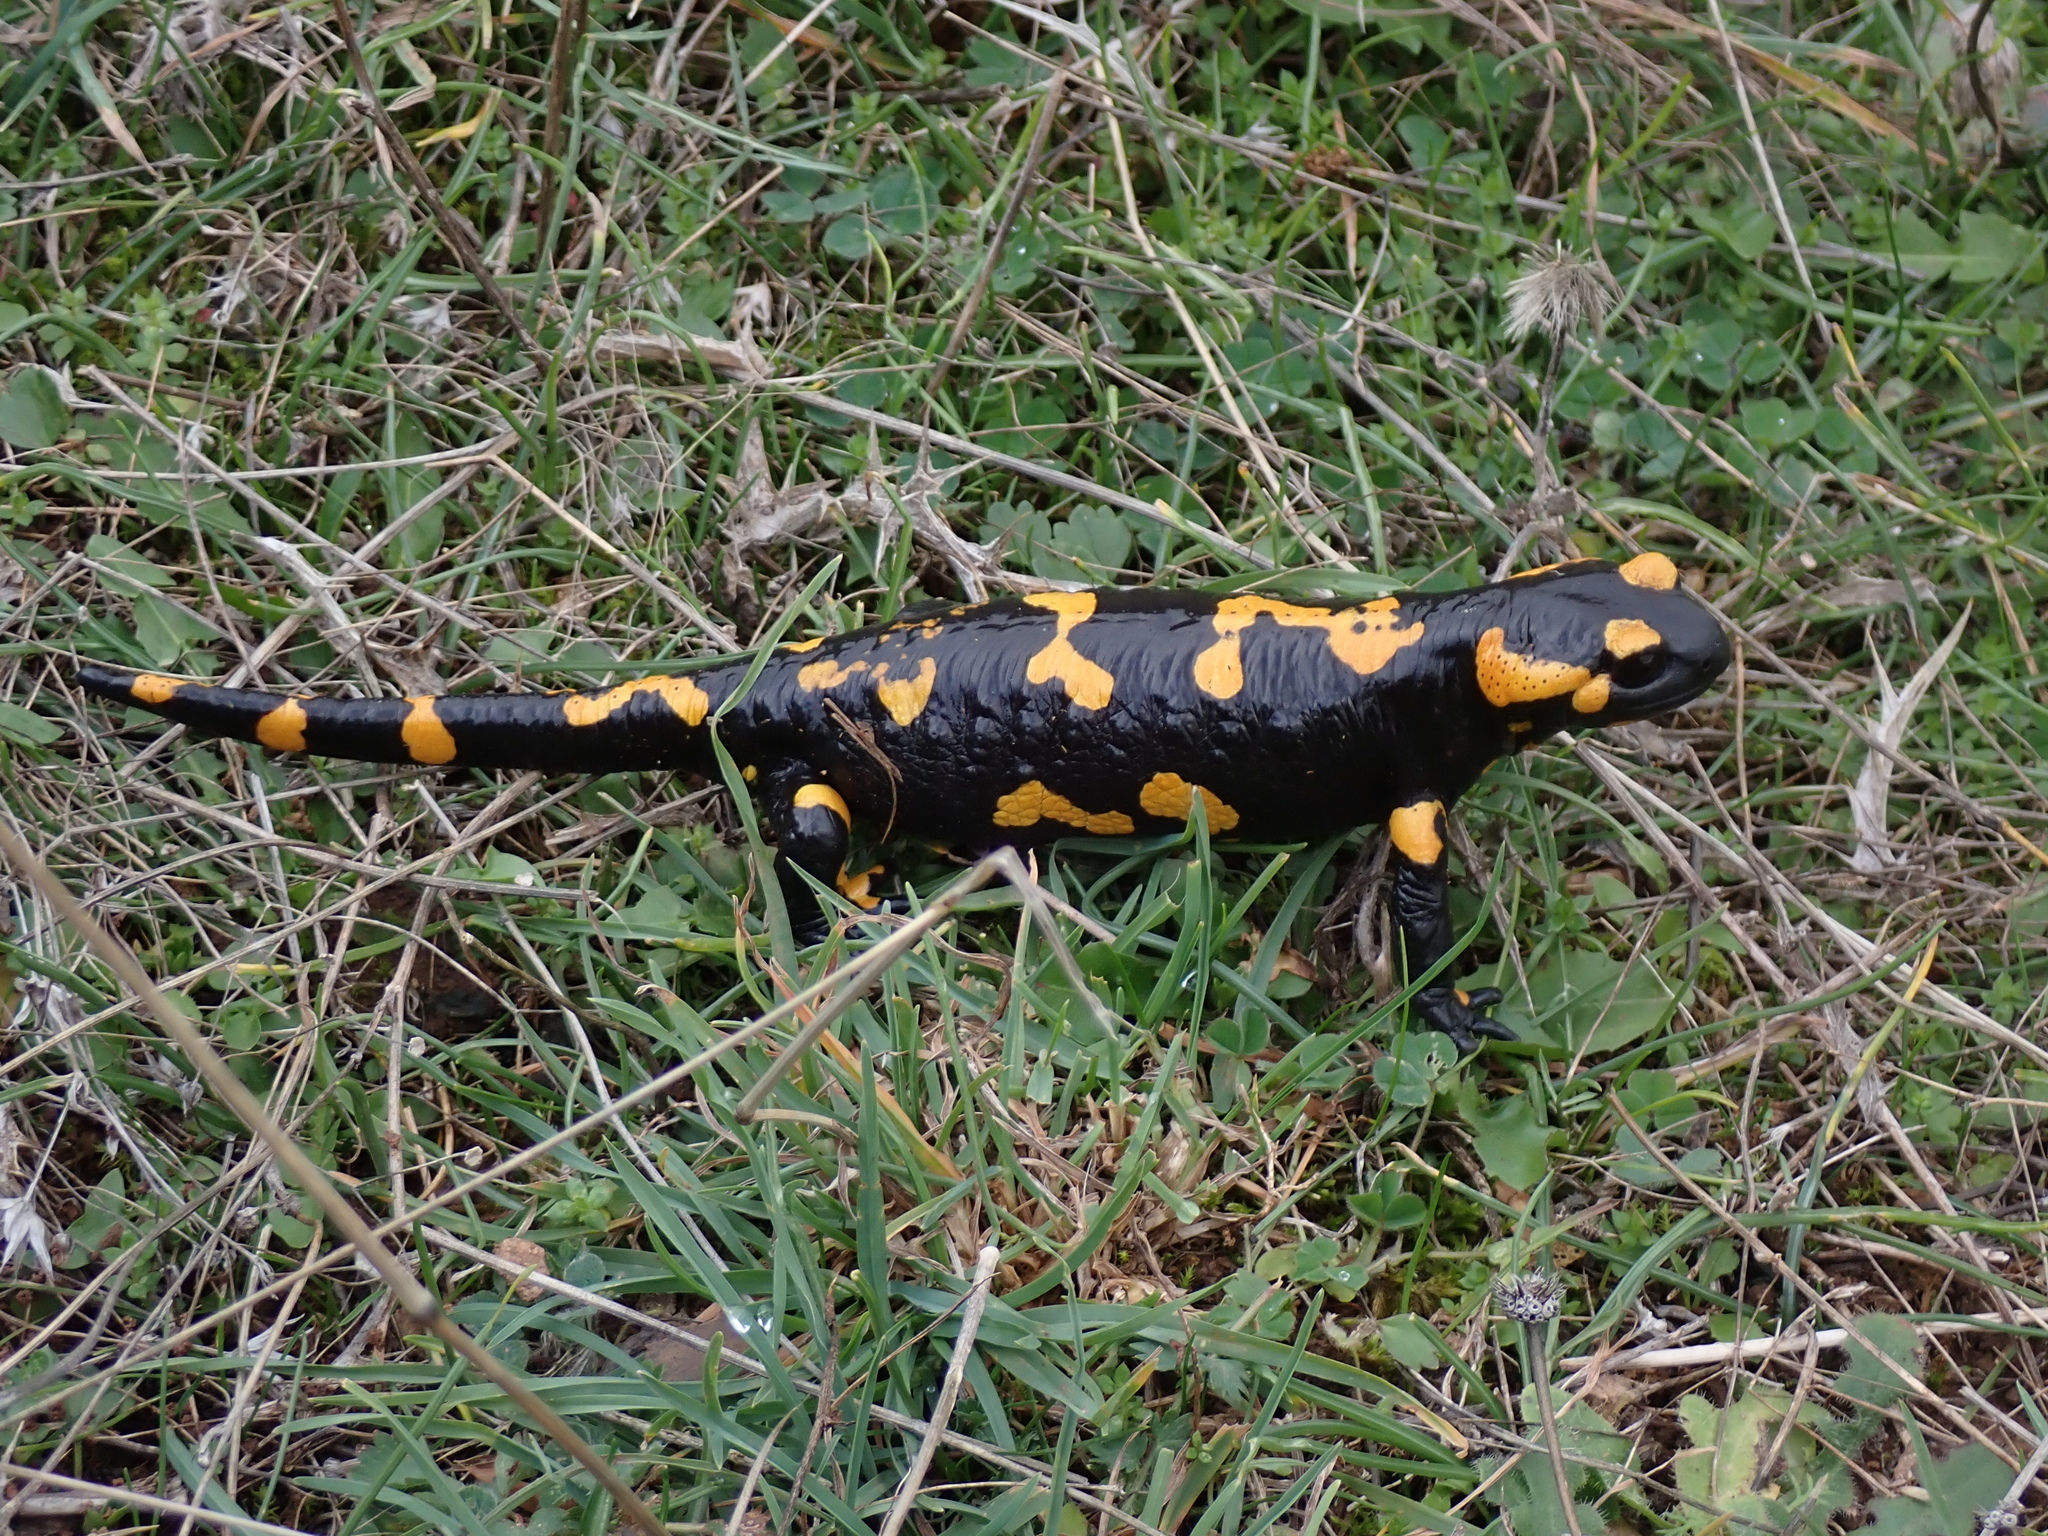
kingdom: Animalia
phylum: Chordata
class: Amphibia
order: Caudata
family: Salamandridae
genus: Salamandra
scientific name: Salamandra salamandra
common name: Fire salamander
